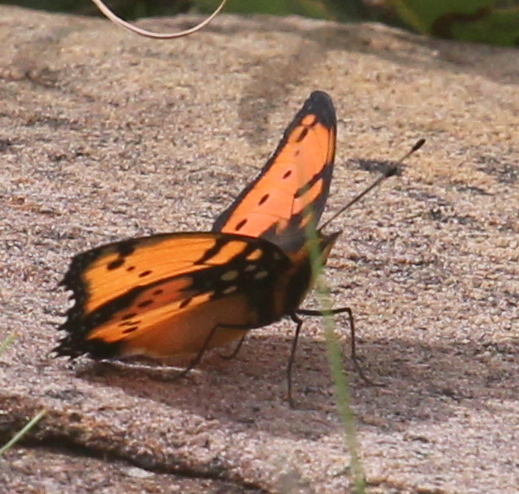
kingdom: Animalia
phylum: Arthropoda
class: Insecta
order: Lepidoptera
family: Nymphalidae
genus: Precis
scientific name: Precis octavia
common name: Gaudy commodore
